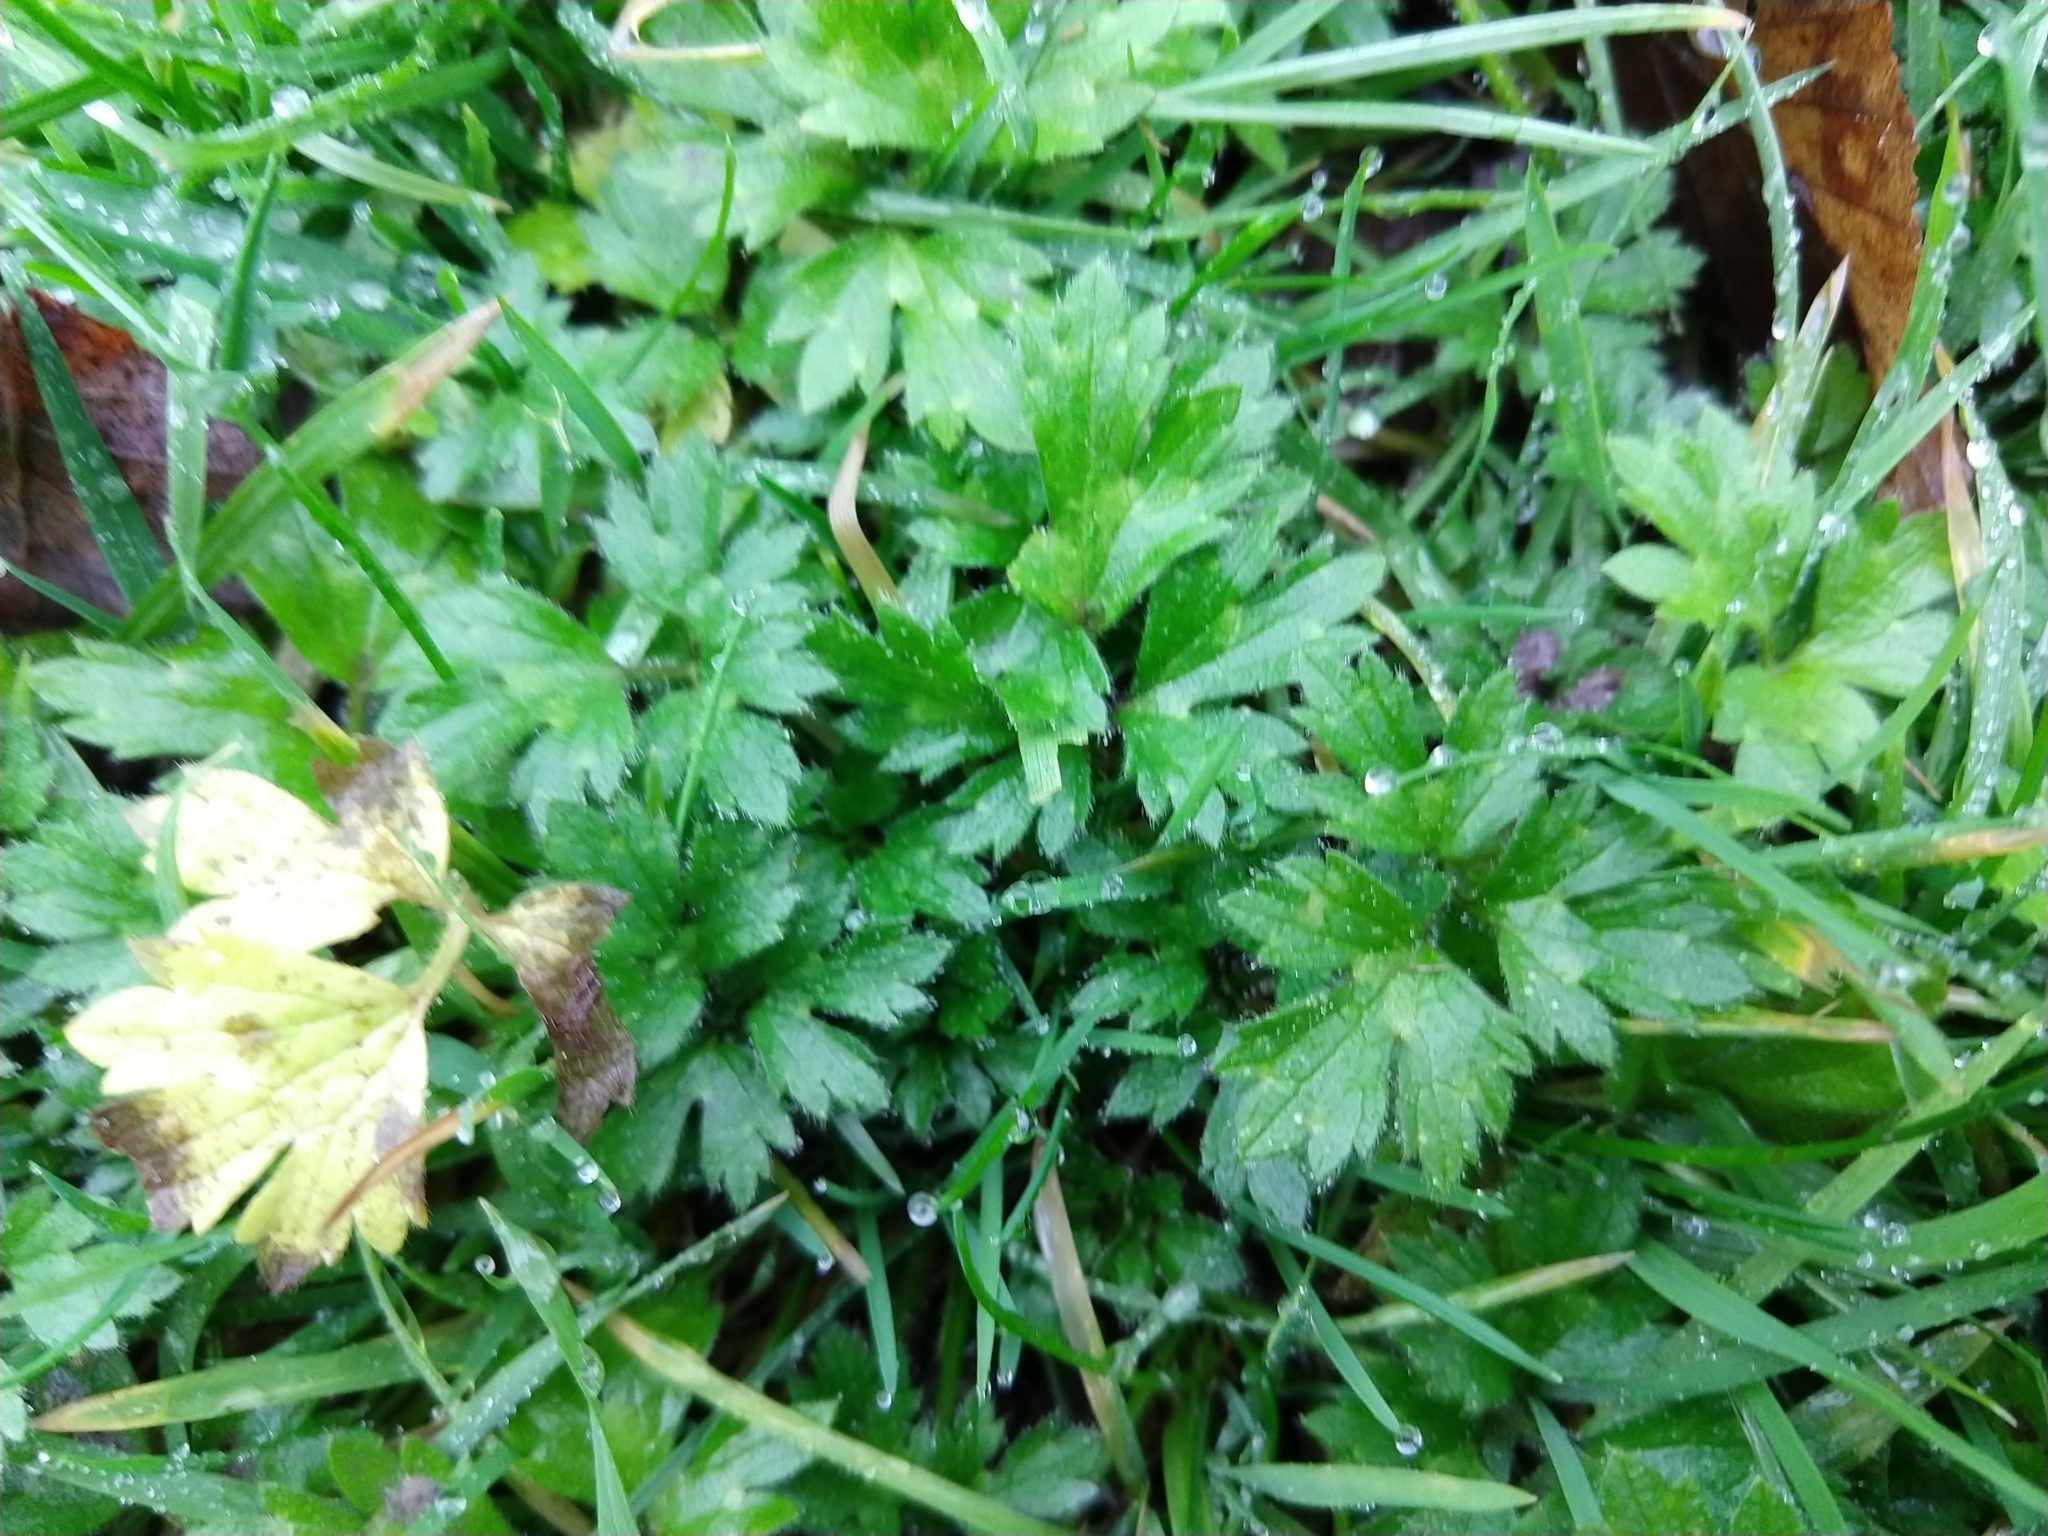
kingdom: Plantae
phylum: Tracheophyta
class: Magnoliopsida
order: Ranunculales
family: Ranunculaceae
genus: Ranunculus
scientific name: Ranunculus repens
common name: Creeping buttercup
